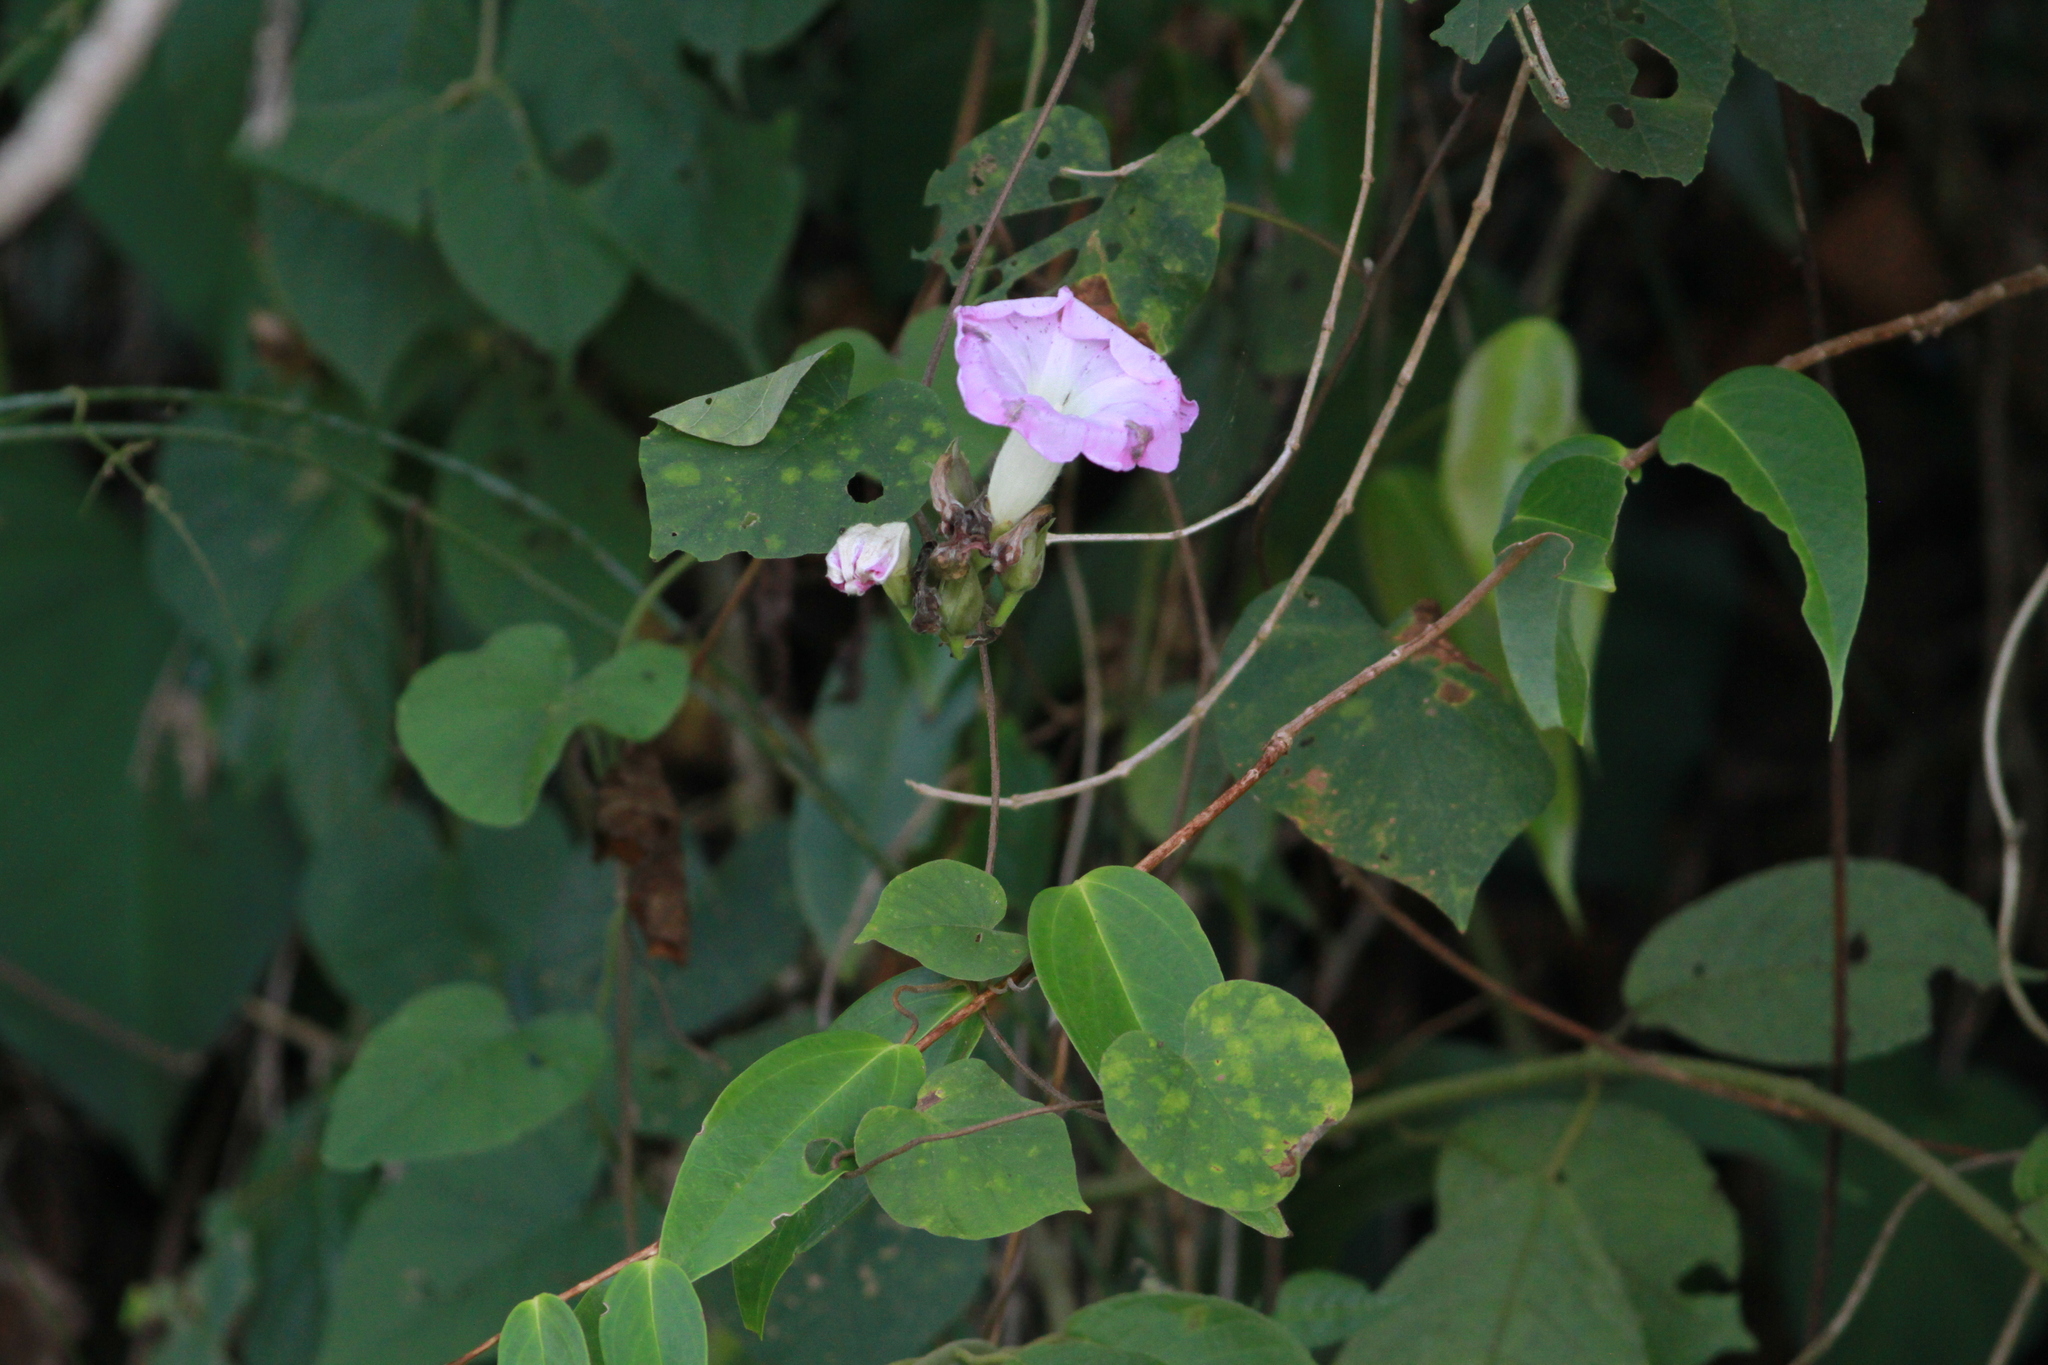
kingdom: Plantae
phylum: Tracheophyta
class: Magnoliopsida
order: Solanales
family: Convolvulaceae
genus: Ipomoea
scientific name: Ipomoea mairetii
